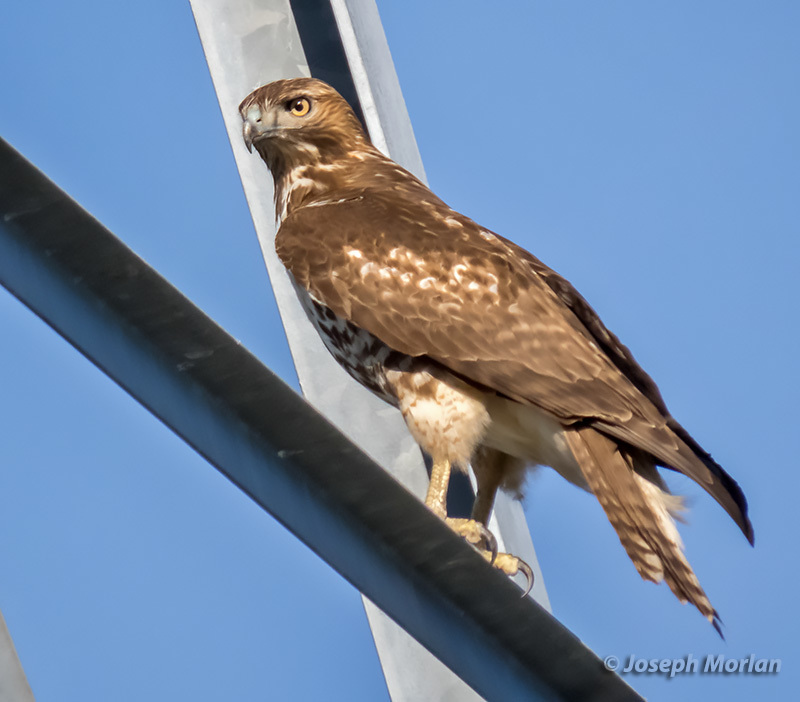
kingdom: Animalia
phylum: Chordata
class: Aves
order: Accipitriformes
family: Accipitridae
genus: Buteo
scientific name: Buteo jamaicensis
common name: Red-tailed hawk
